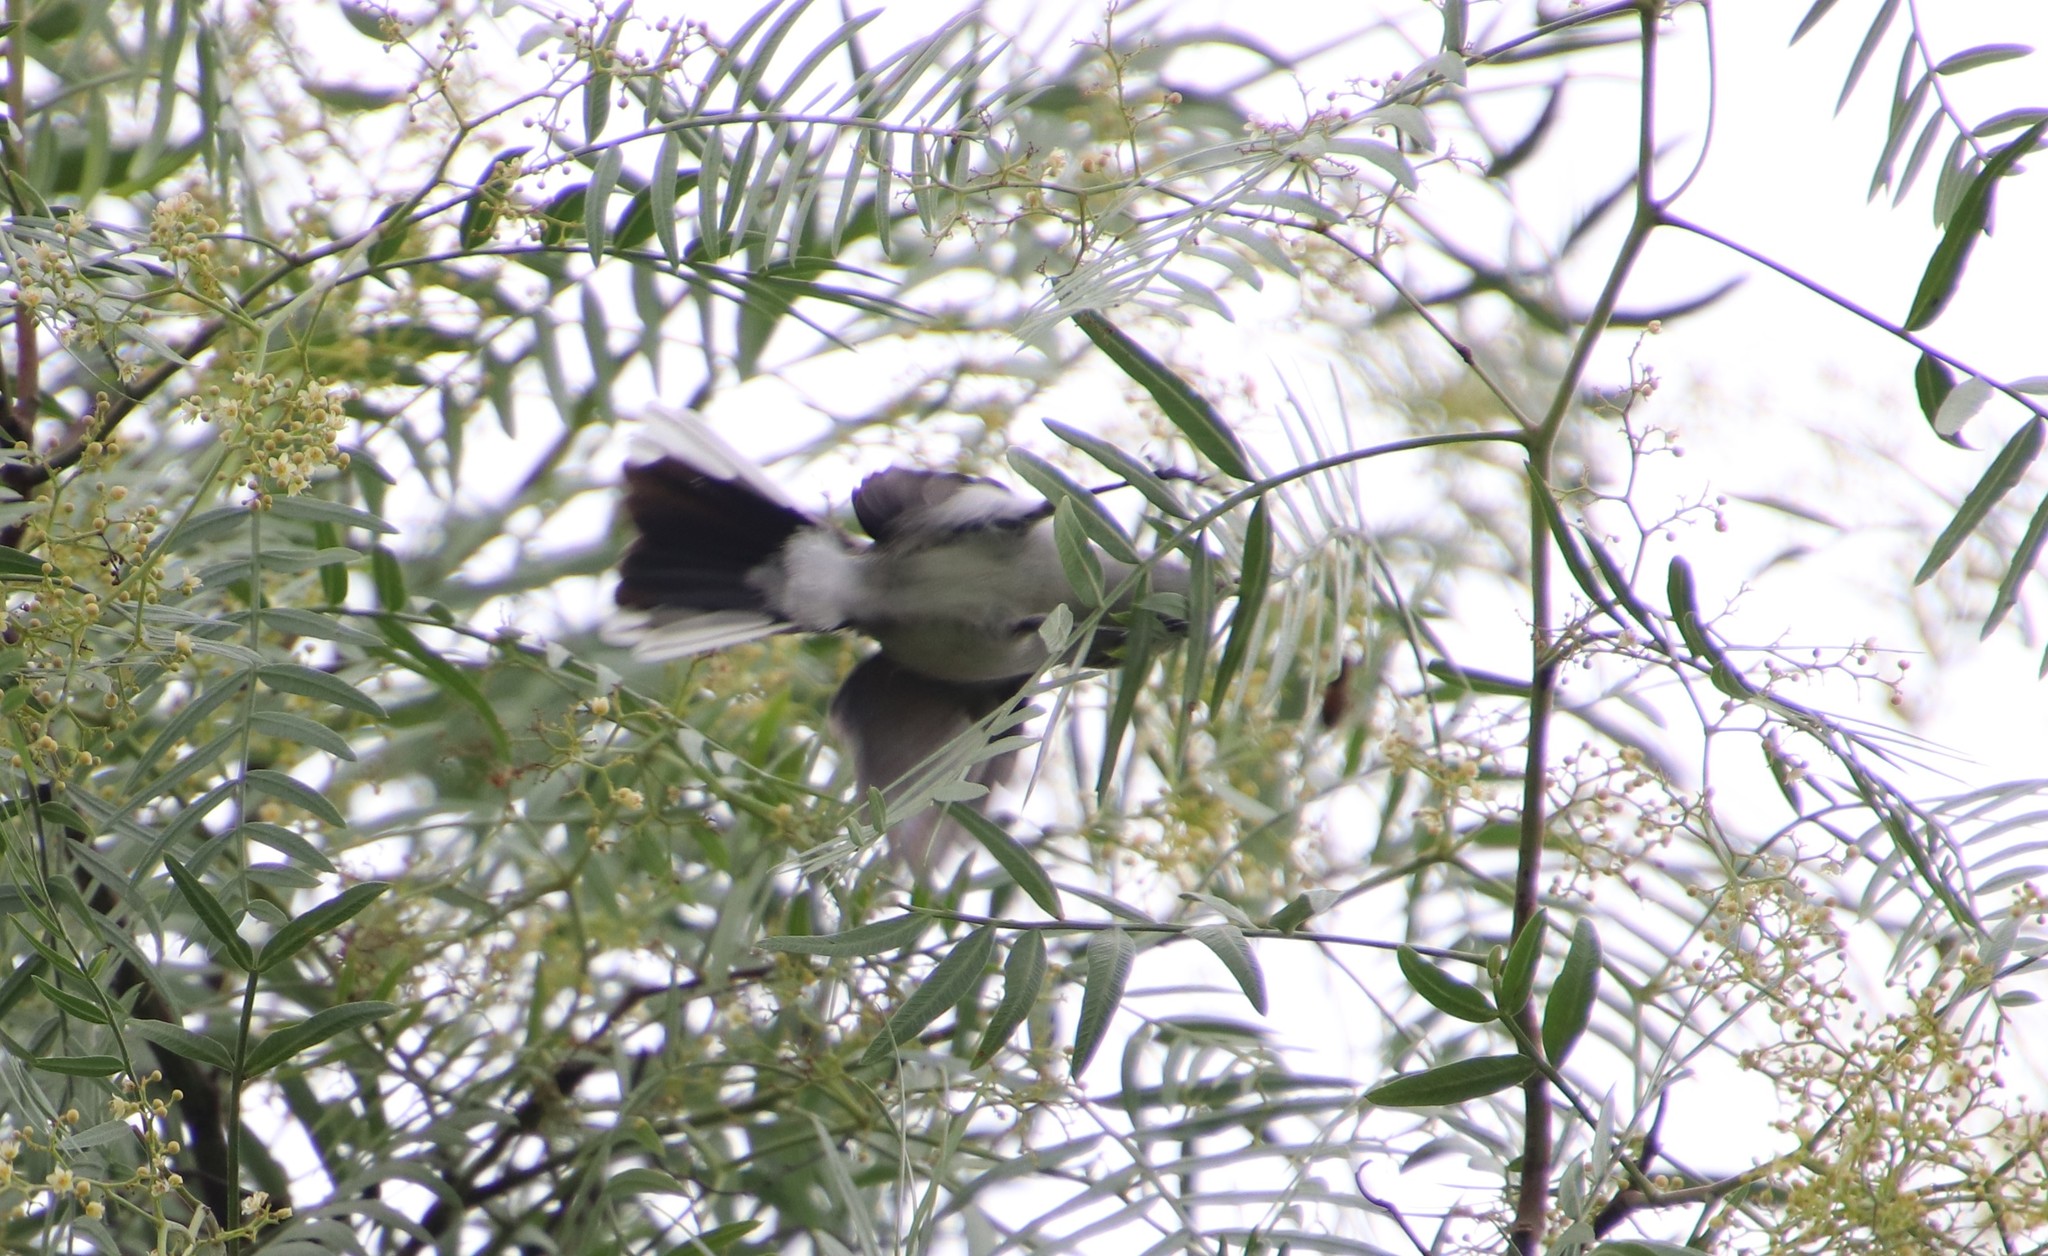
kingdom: Animalia
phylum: Chordata
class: Aves
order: Passeriformes
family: Polioptilidae
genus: Polioptila
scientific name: Polioptila caerulea
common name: Blue-gray gnatcatcher
